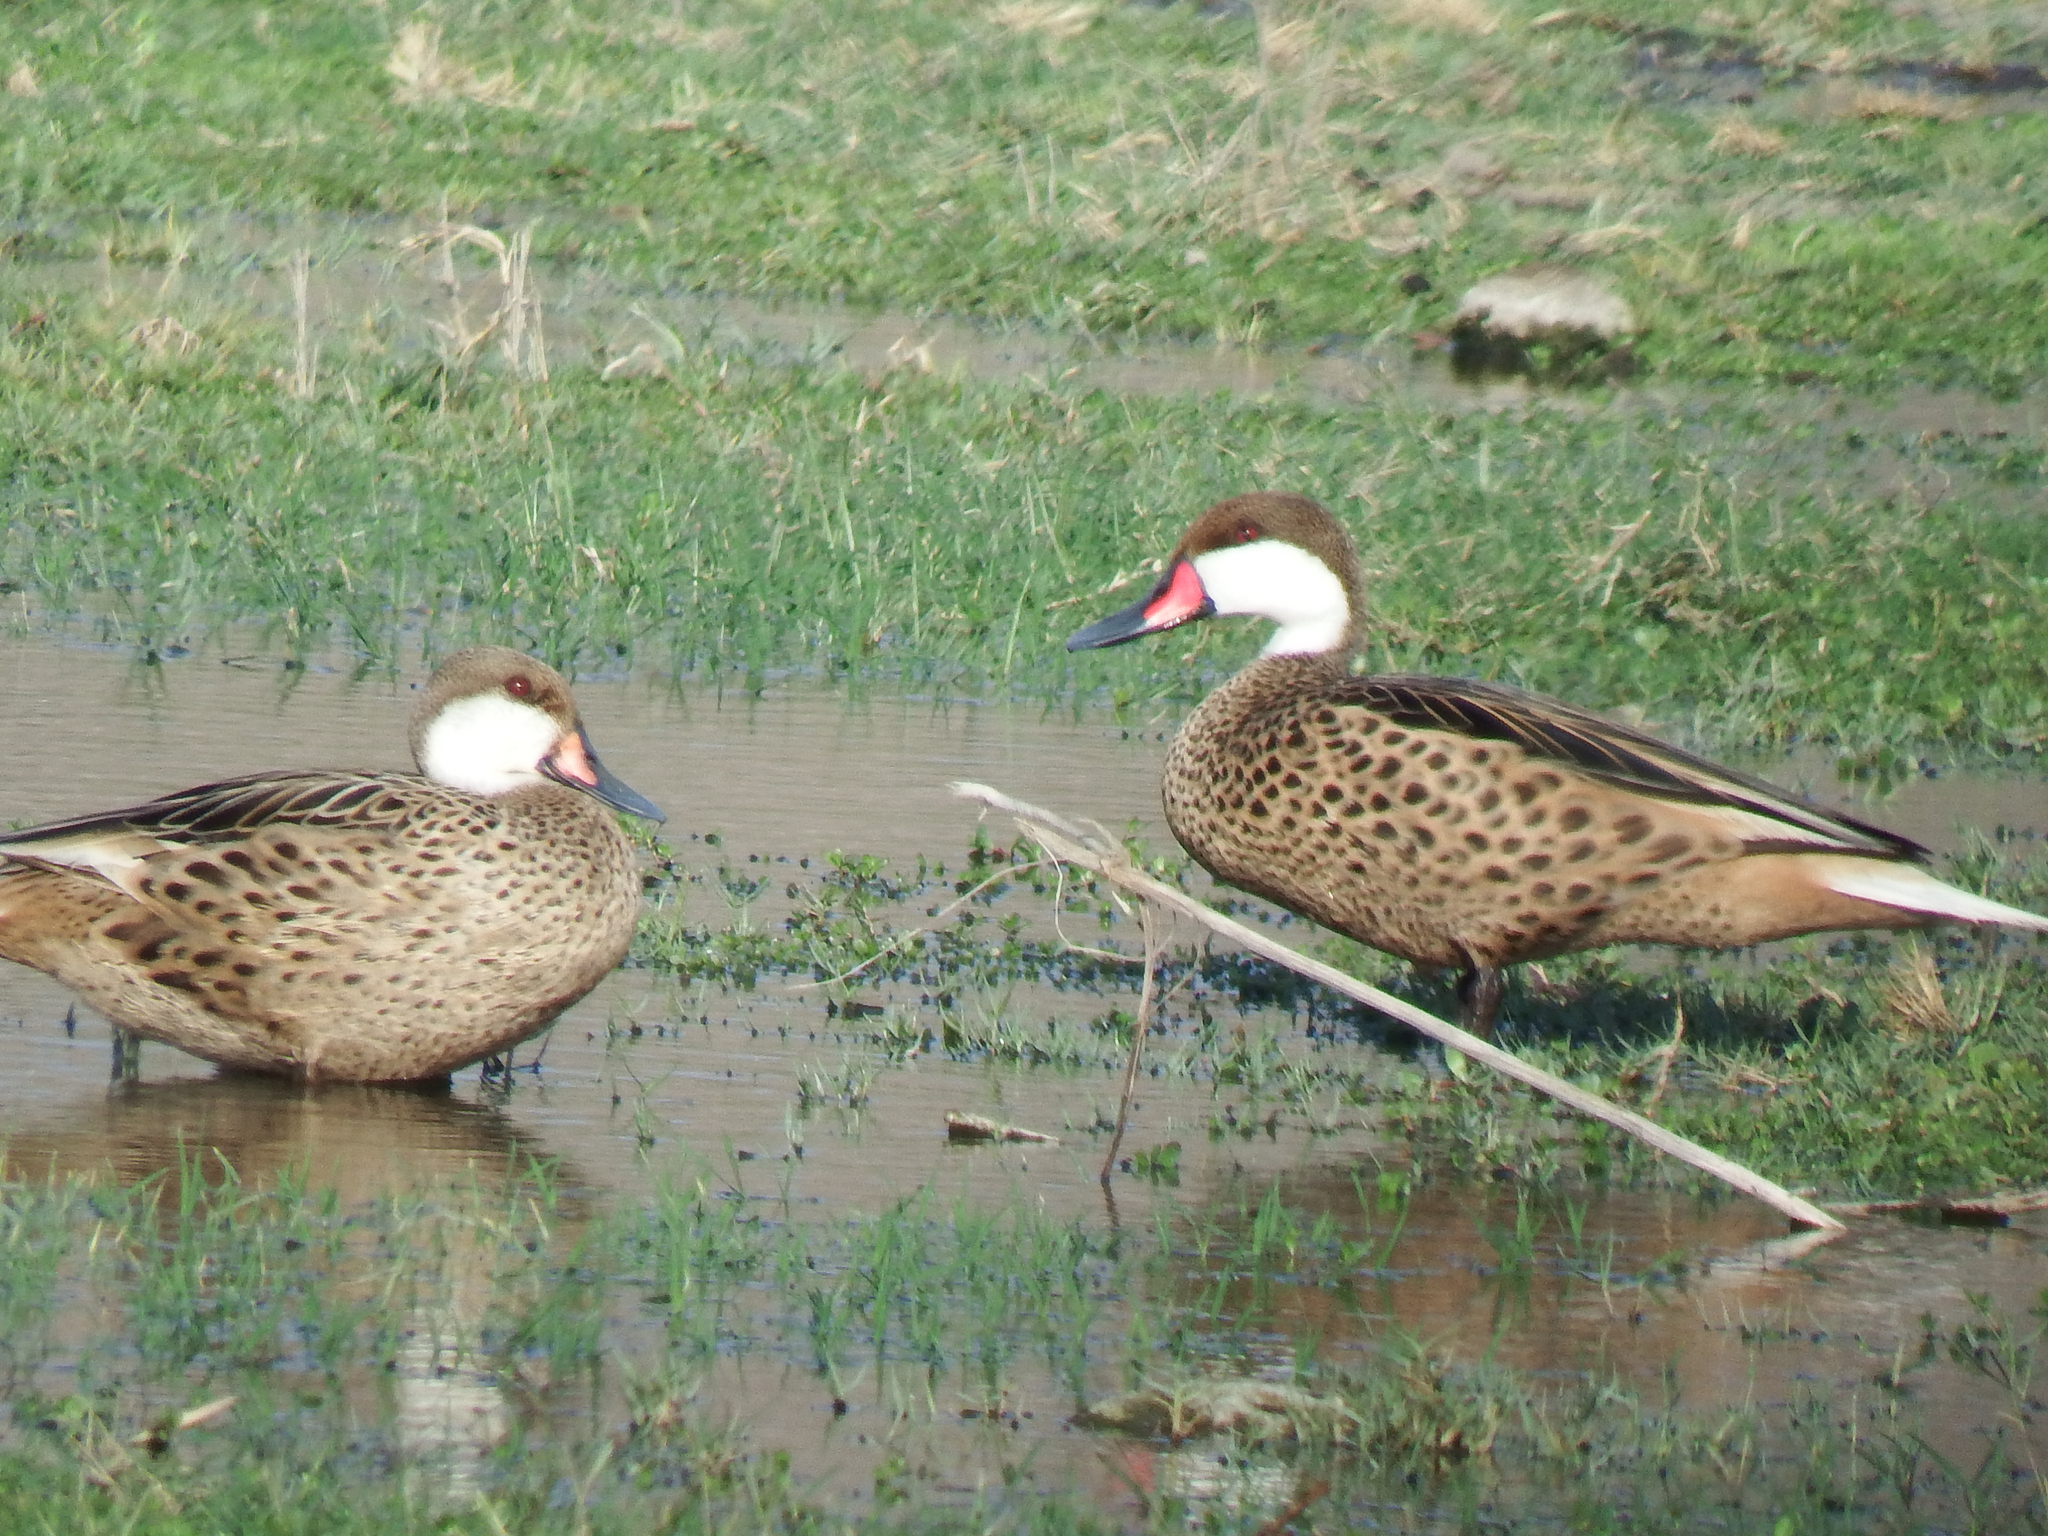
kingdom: Animalia
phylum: Chordata
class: Aves
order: Anseriformes
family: Anatidae
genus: Anas
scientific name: Anas bahamensis
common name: White-cheeked pintail
